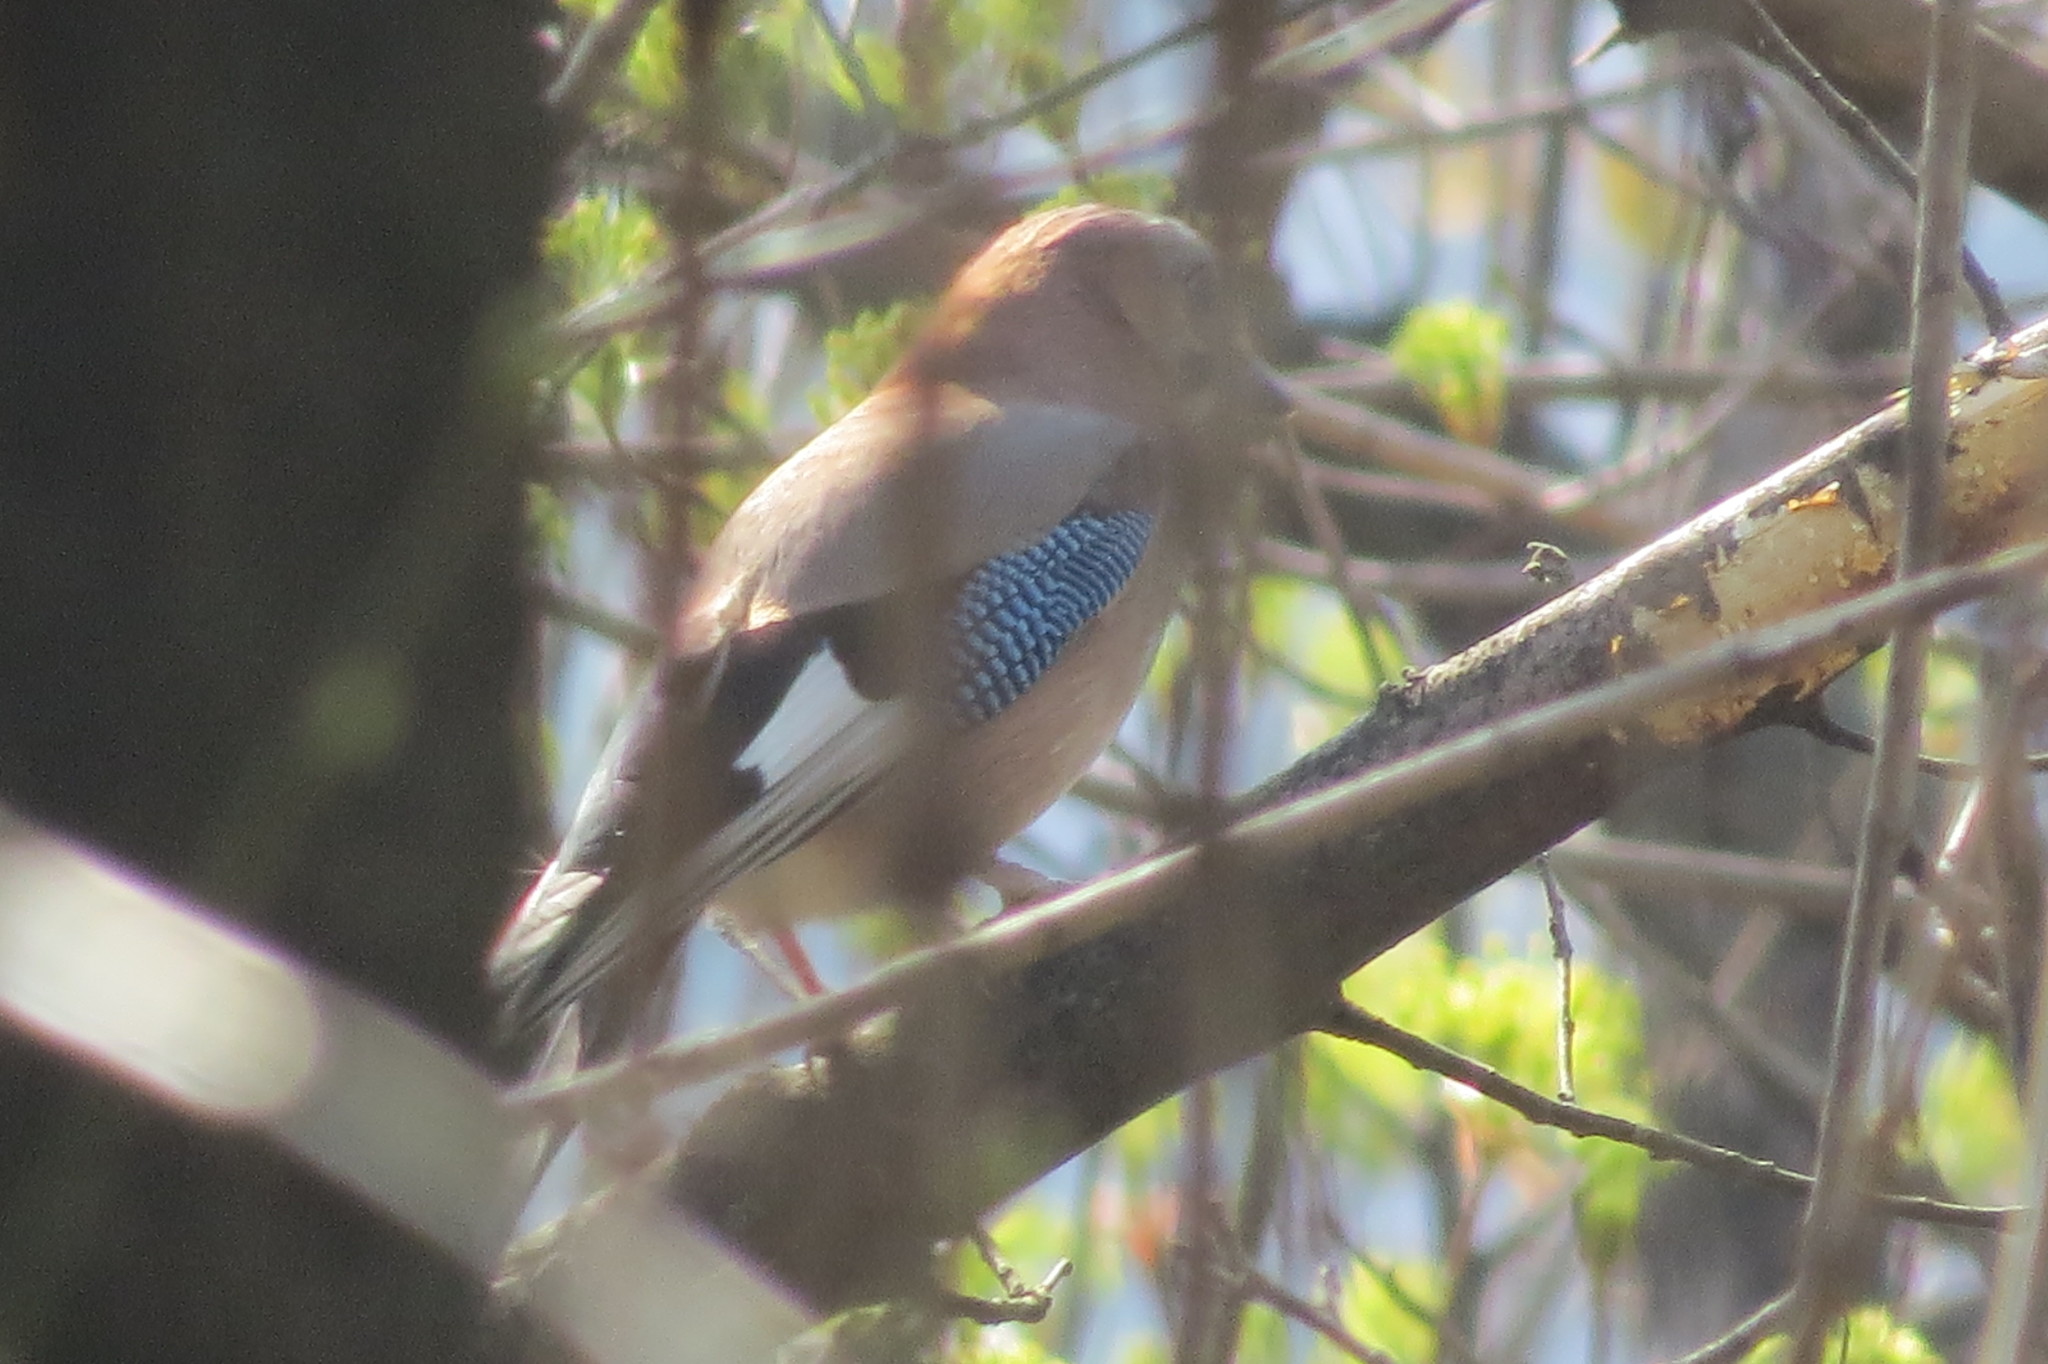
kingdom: Animalia
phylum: Chordata
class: Aves
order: Passeriformes
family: Corvidae
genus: Garrulus
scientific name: Garrulus glandarius
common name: Eurasian jay
